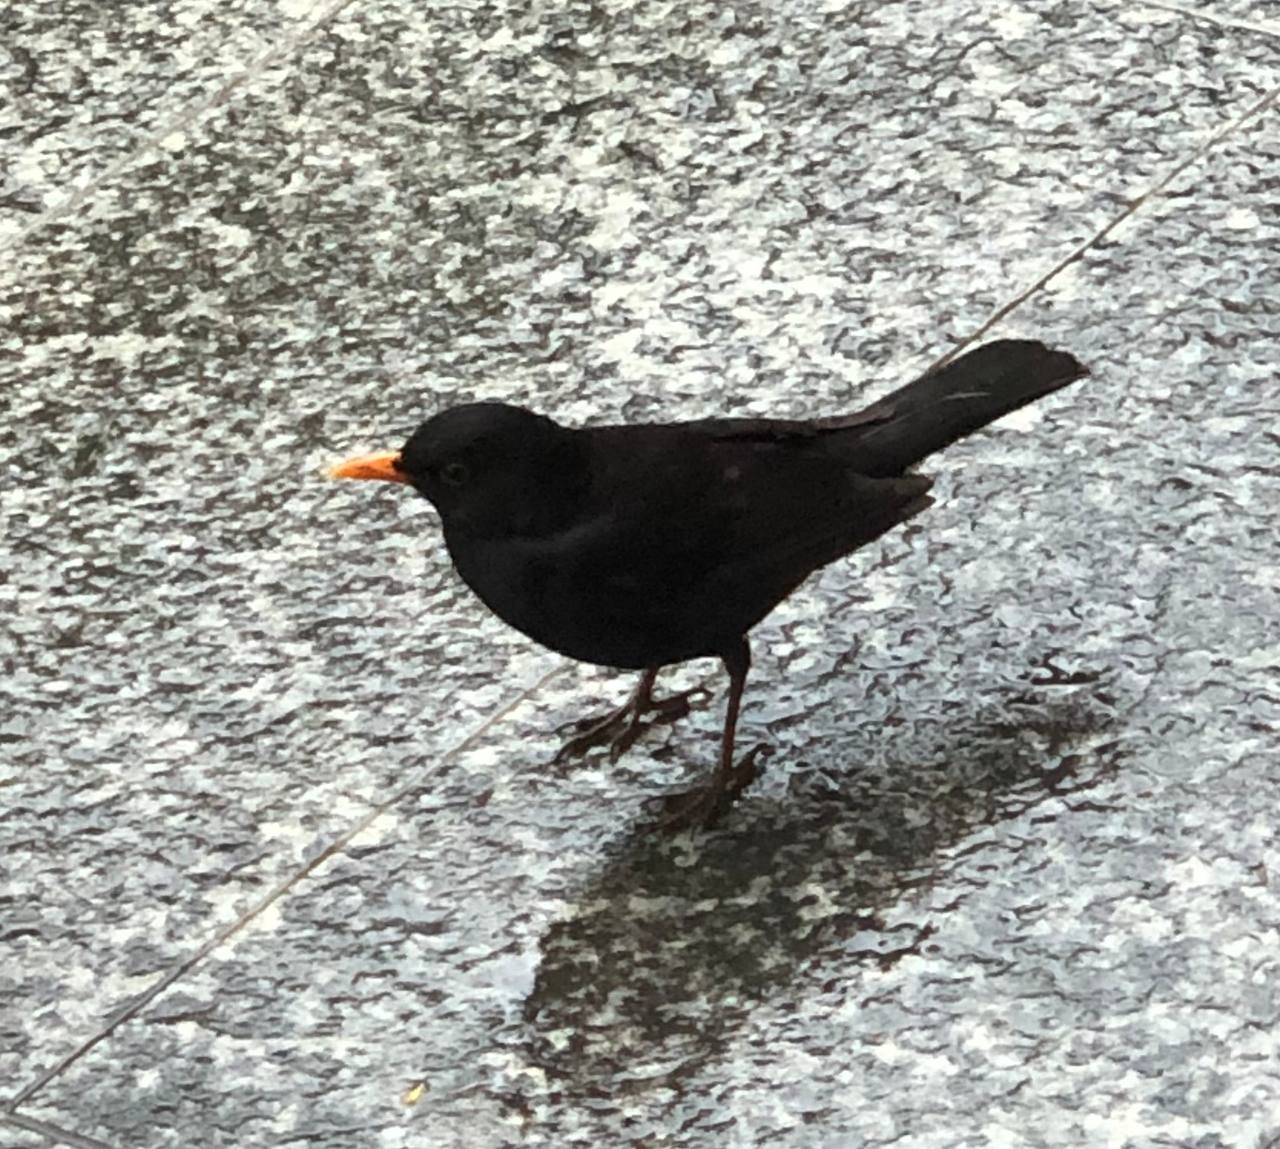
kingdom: Animalia
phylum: Chordata
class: Aves
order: Passeriformes
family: Turdidae
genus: Turdus
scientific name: Turdus merula
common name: Common blackbird
